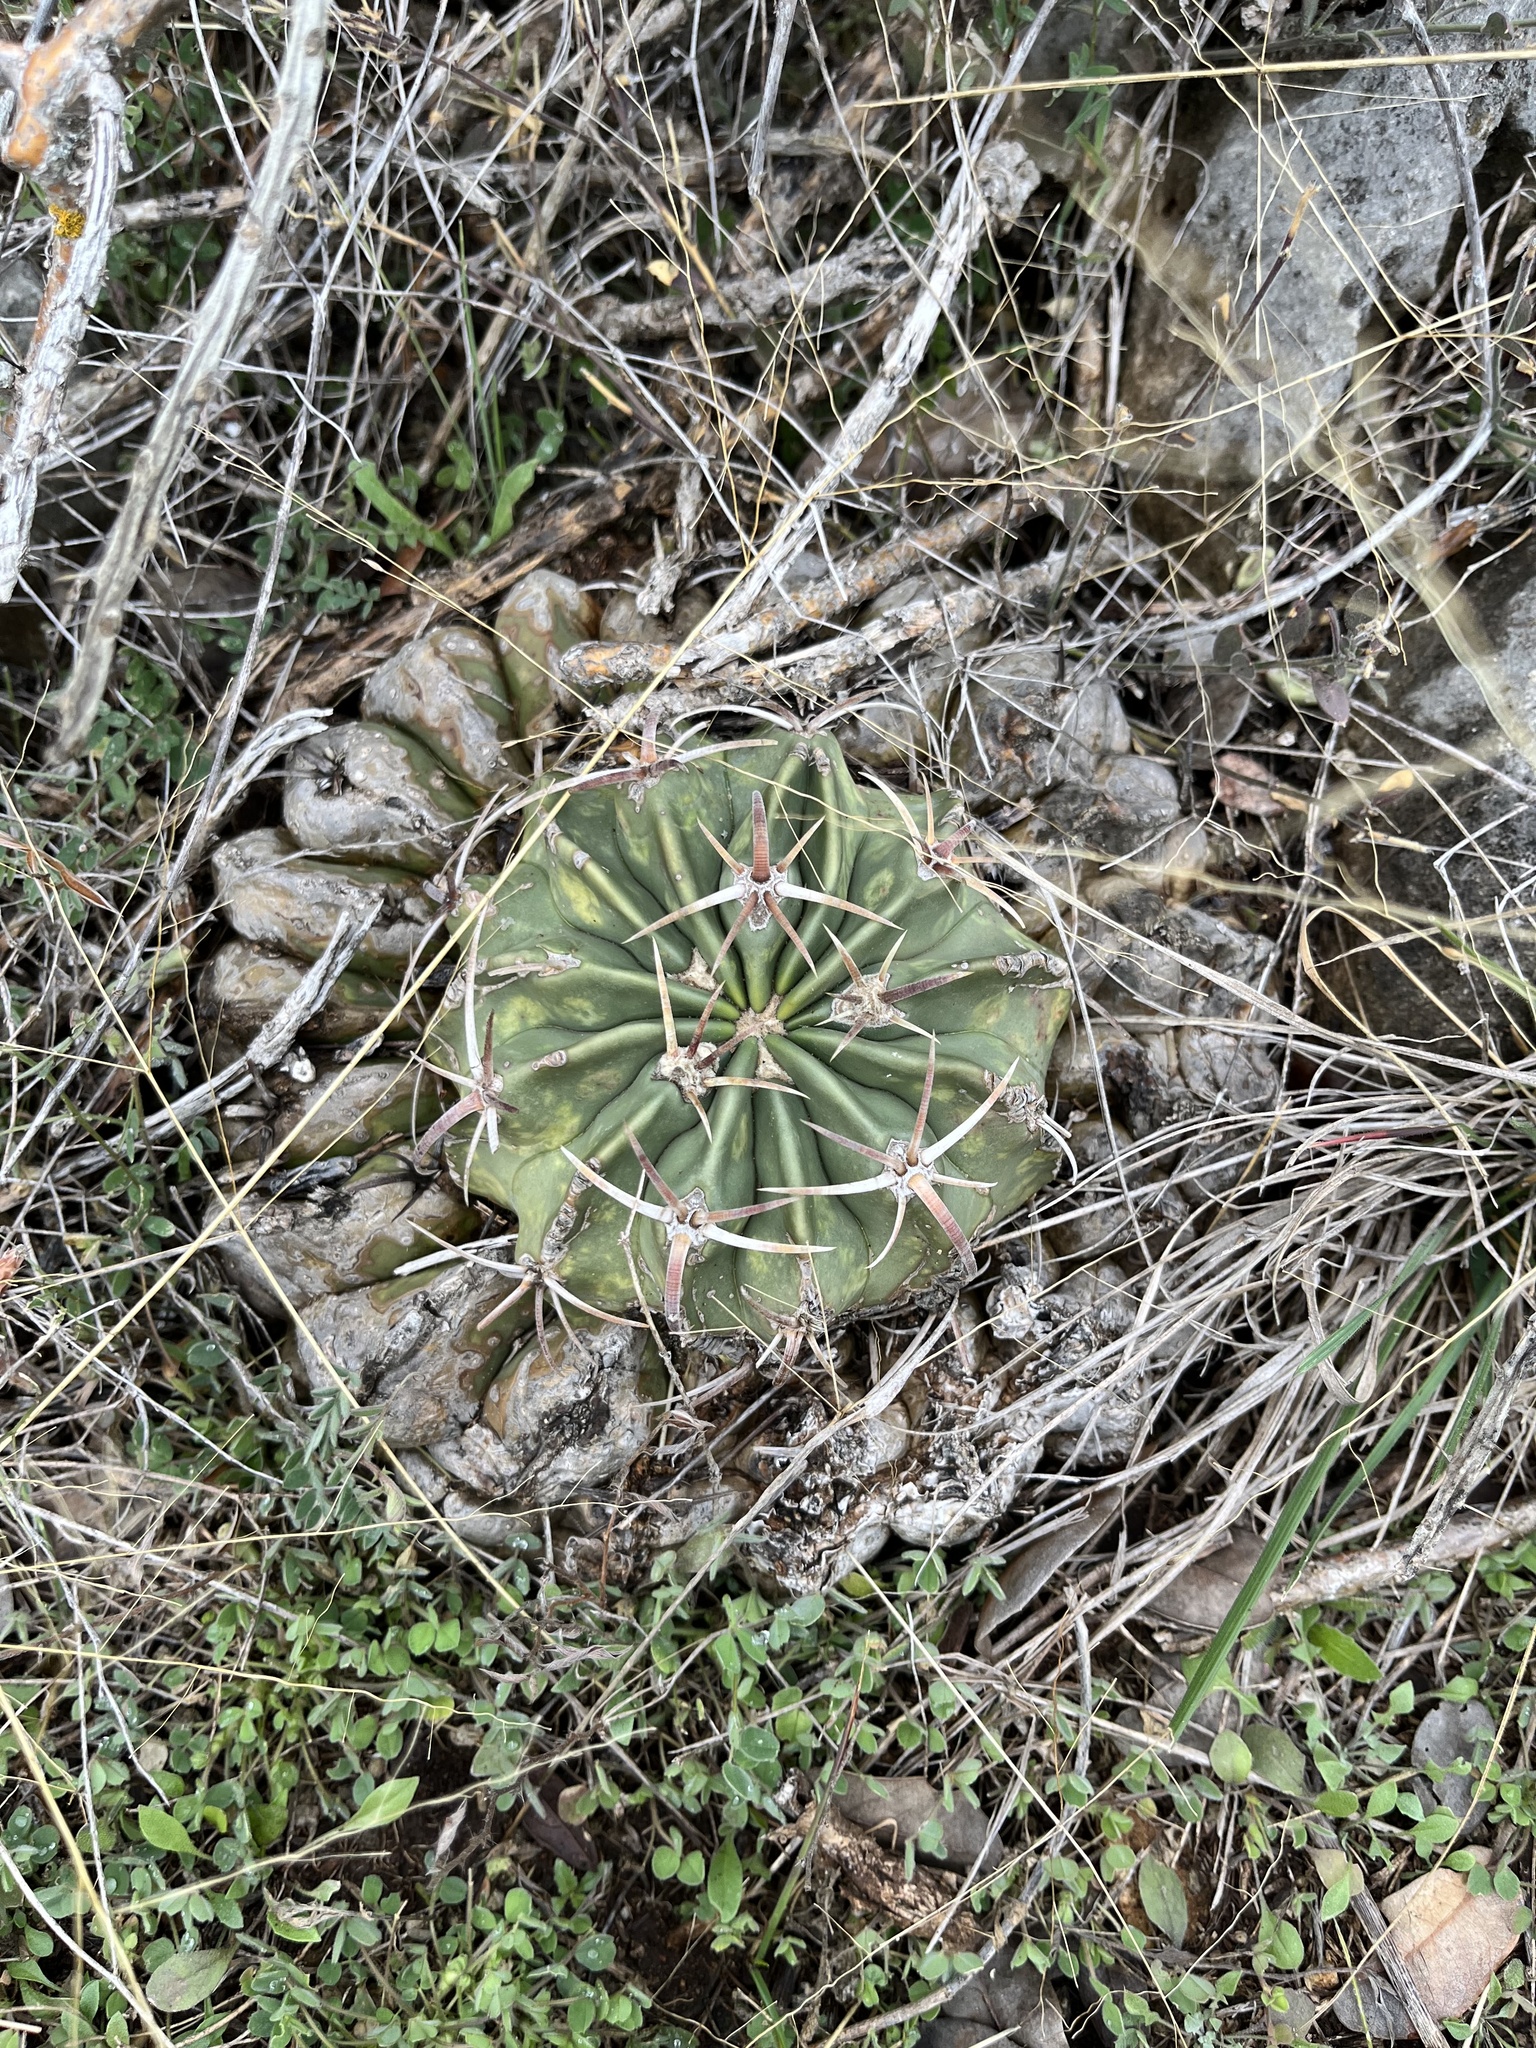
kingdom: Plantae
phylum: Tracheophyta
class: Magnoliopsida
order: Caryophyllales
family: Cactaceae
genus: Echinocactus
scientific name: Echinocactus texensis
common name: Devil's pincushion
